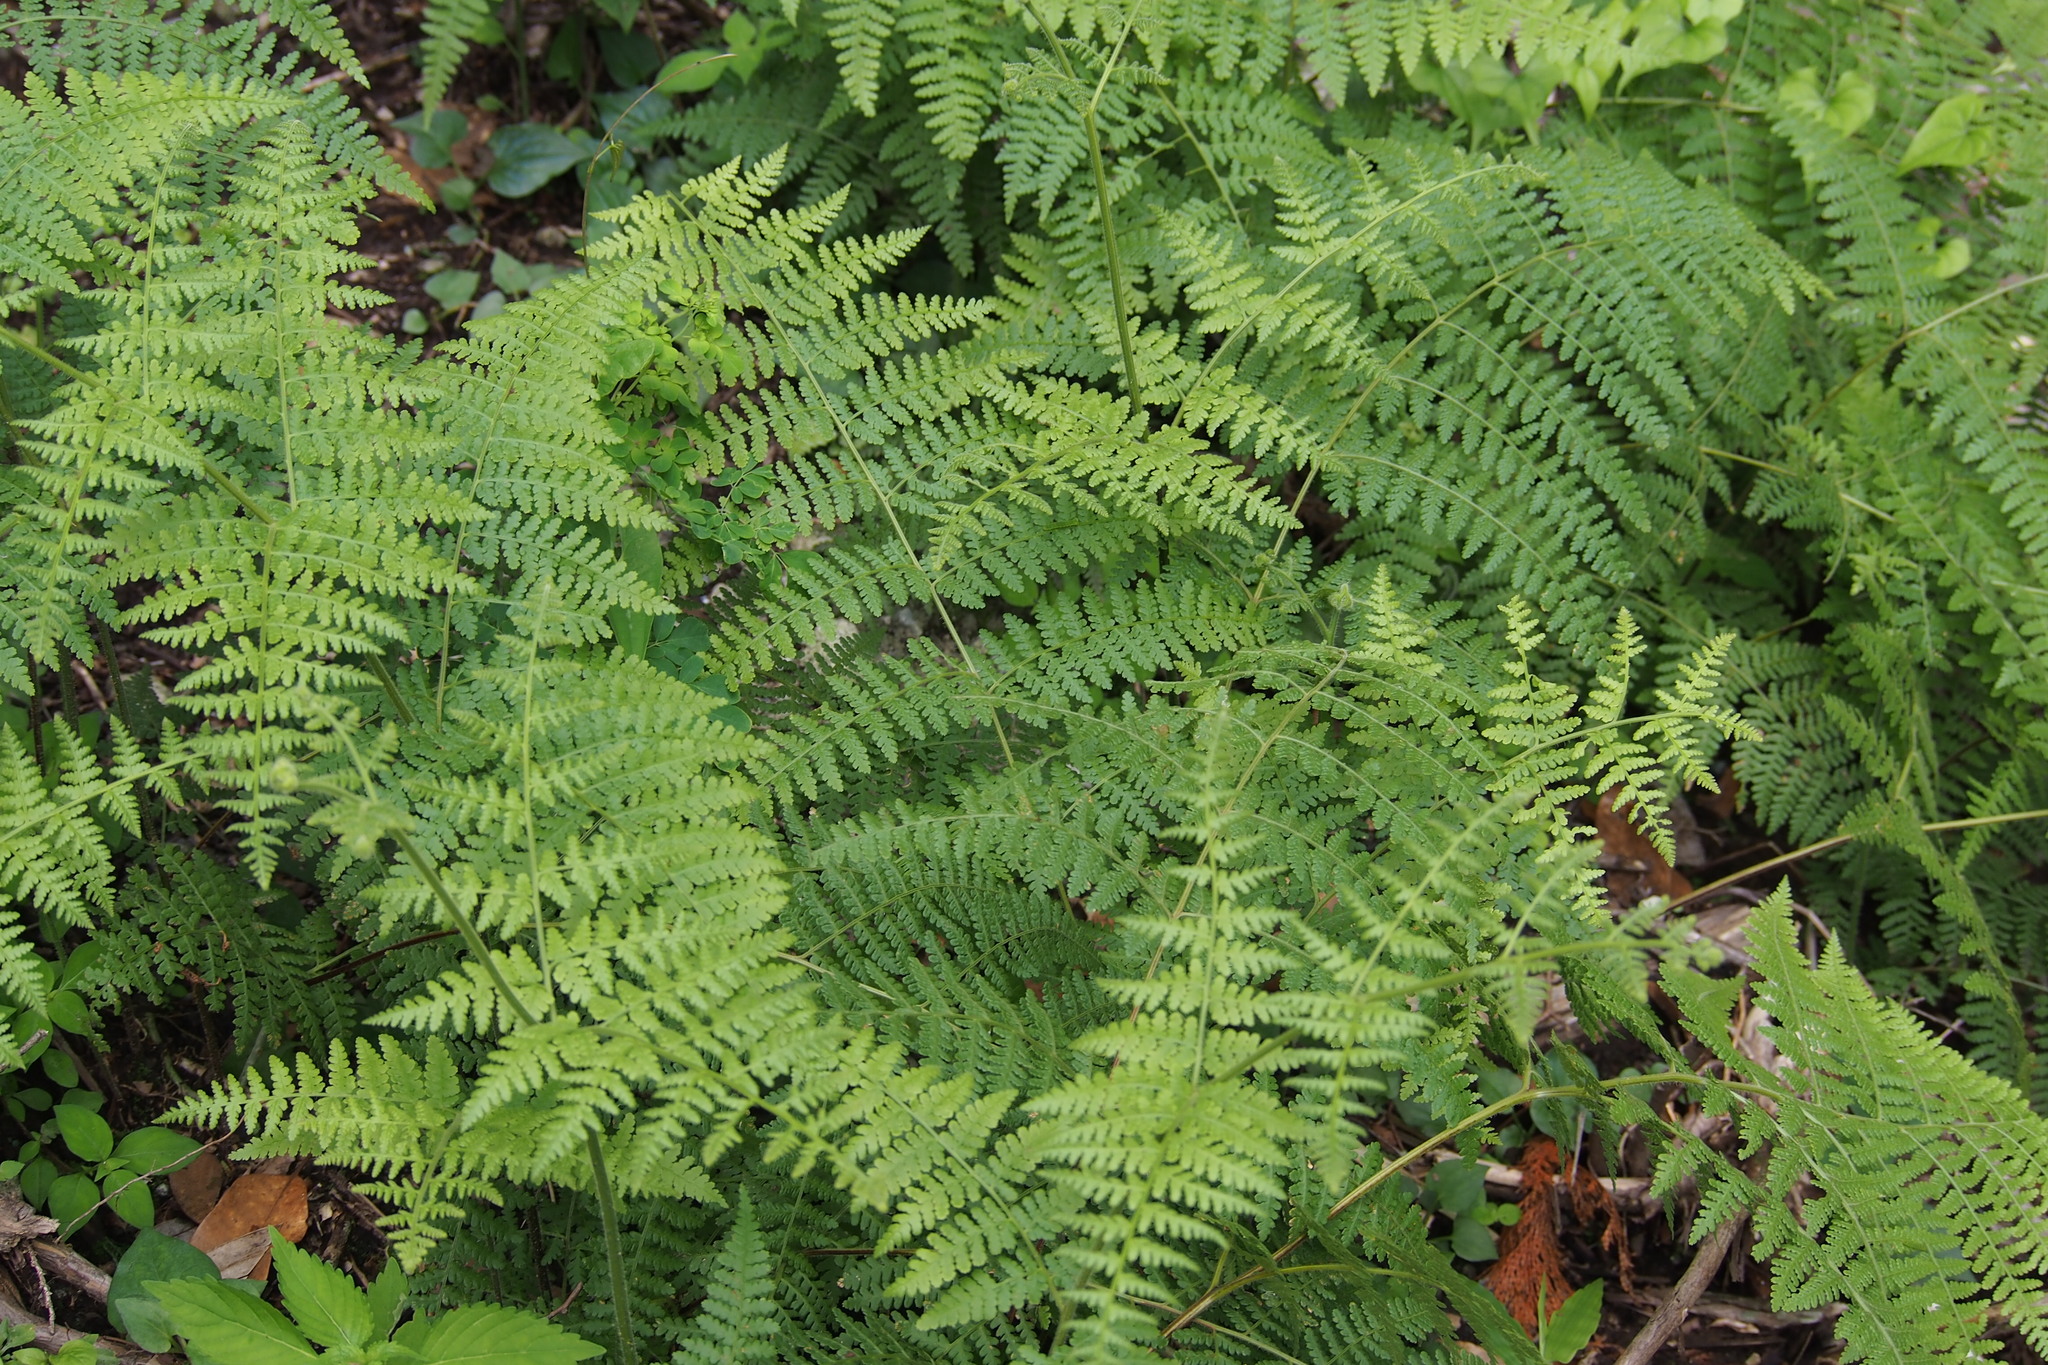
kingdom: Plantae
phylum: Tracheophyta
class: Polypodiopsida
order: Polypodiales
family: Dennstaedtiaceae
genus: Hypolepis
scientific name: Hypolepis punctata
